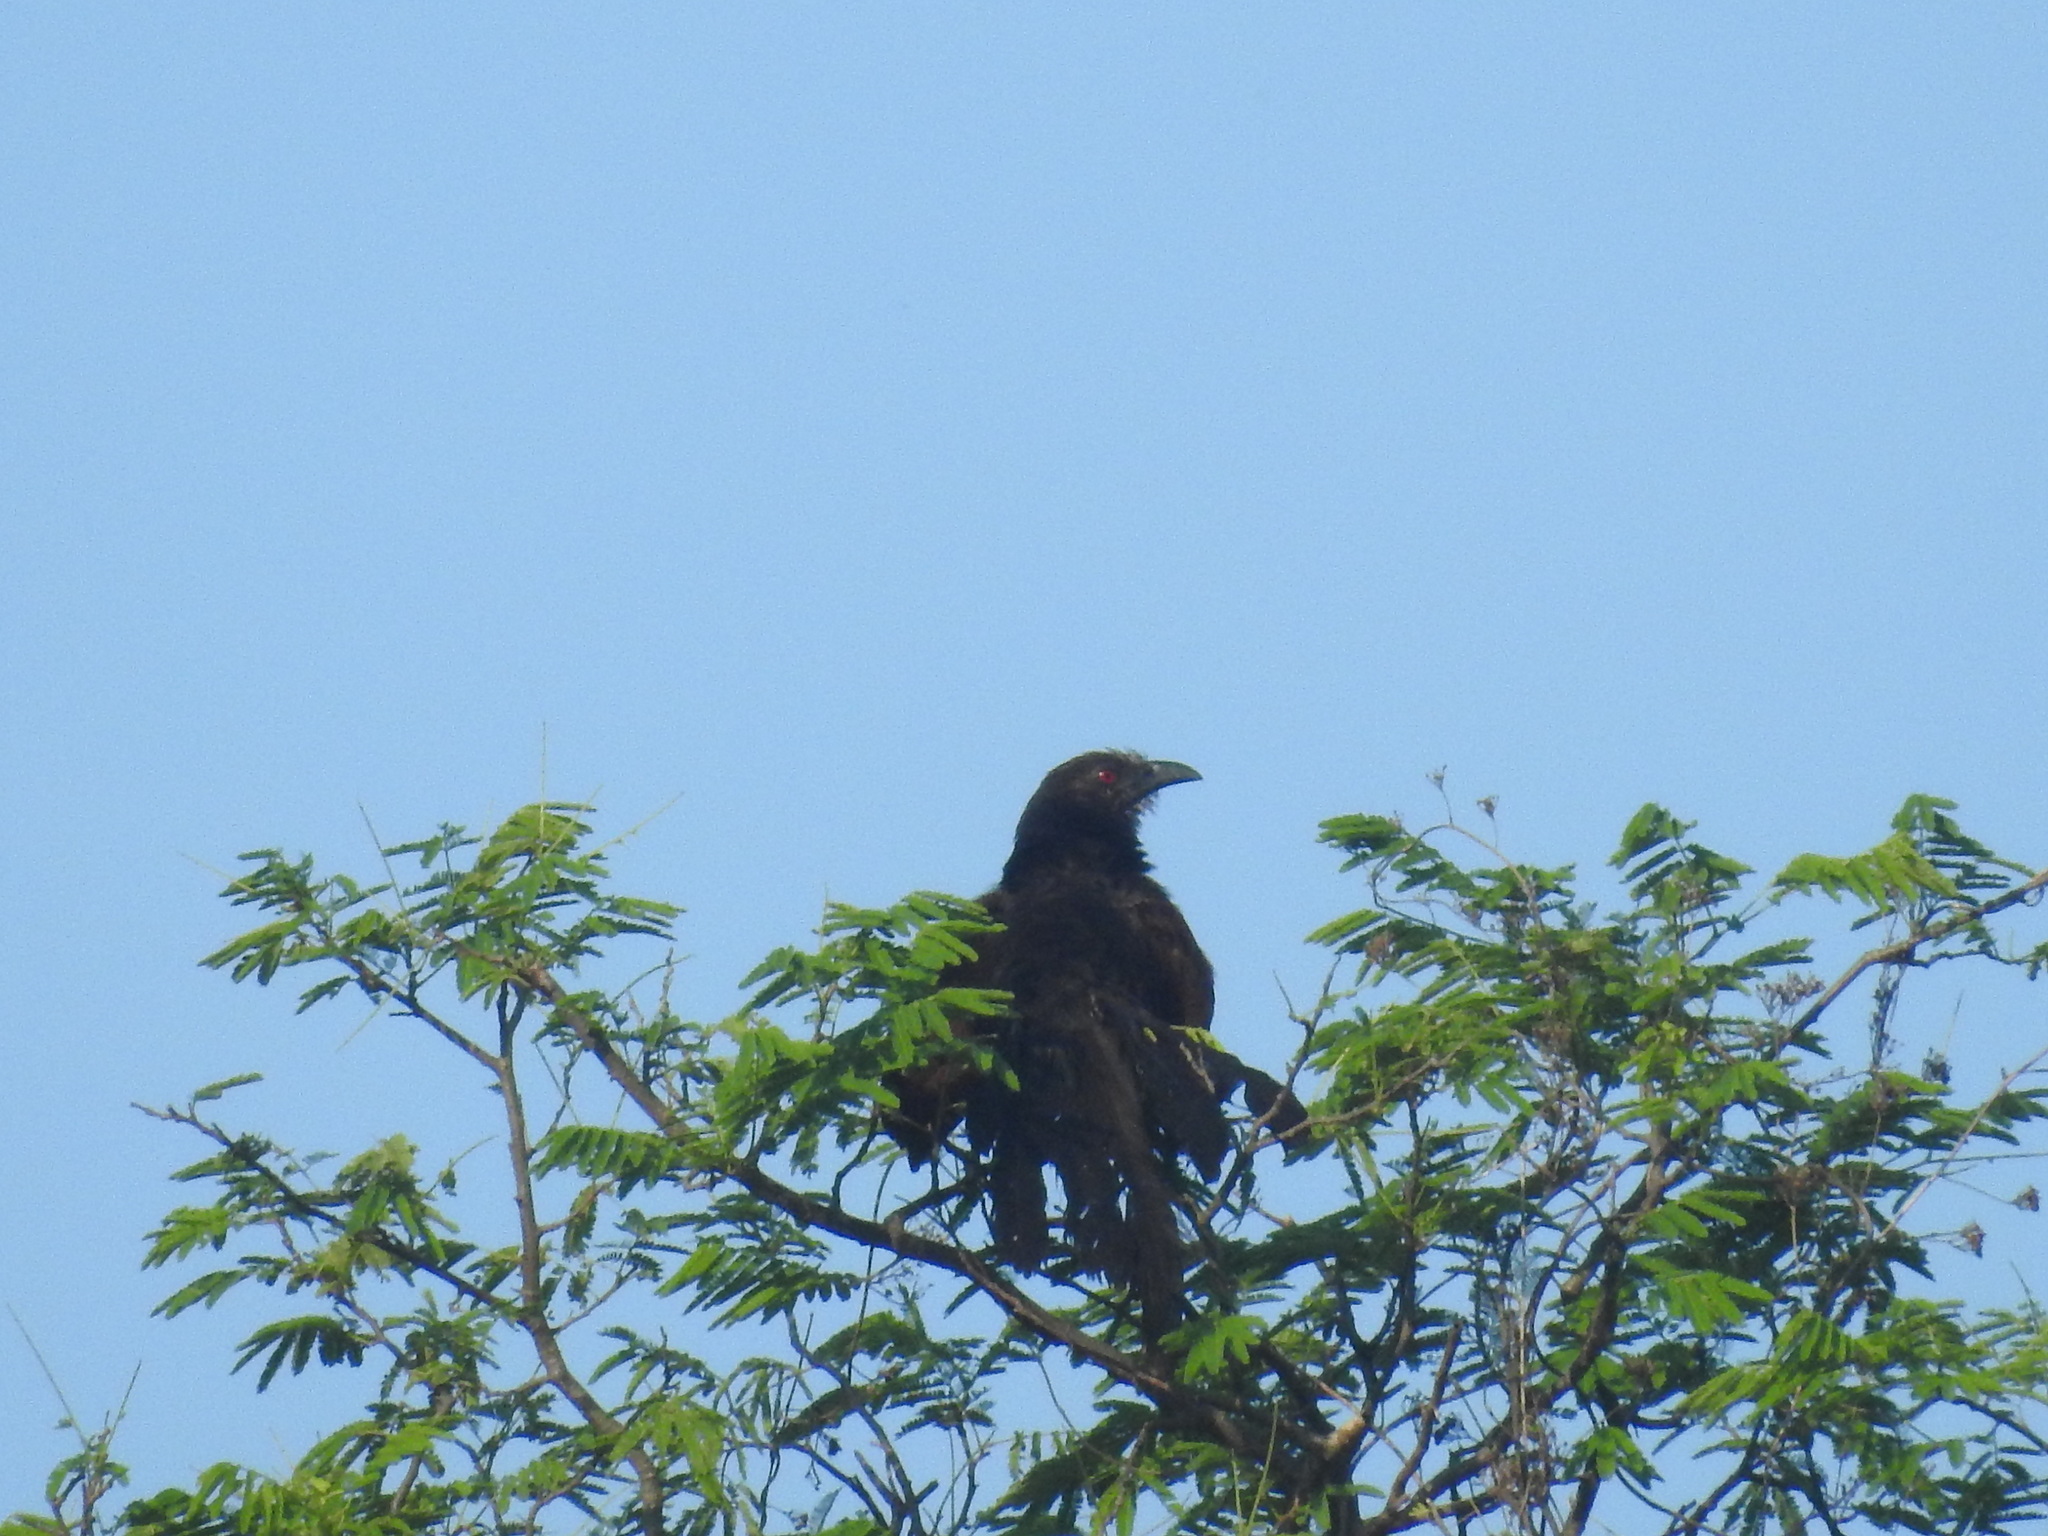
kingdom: Animalia
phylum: Chordata
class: Aves
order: Cuculiformes
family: Cuculidae
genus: Centropus
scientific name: Centropus sinensis
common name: Greater coucal
